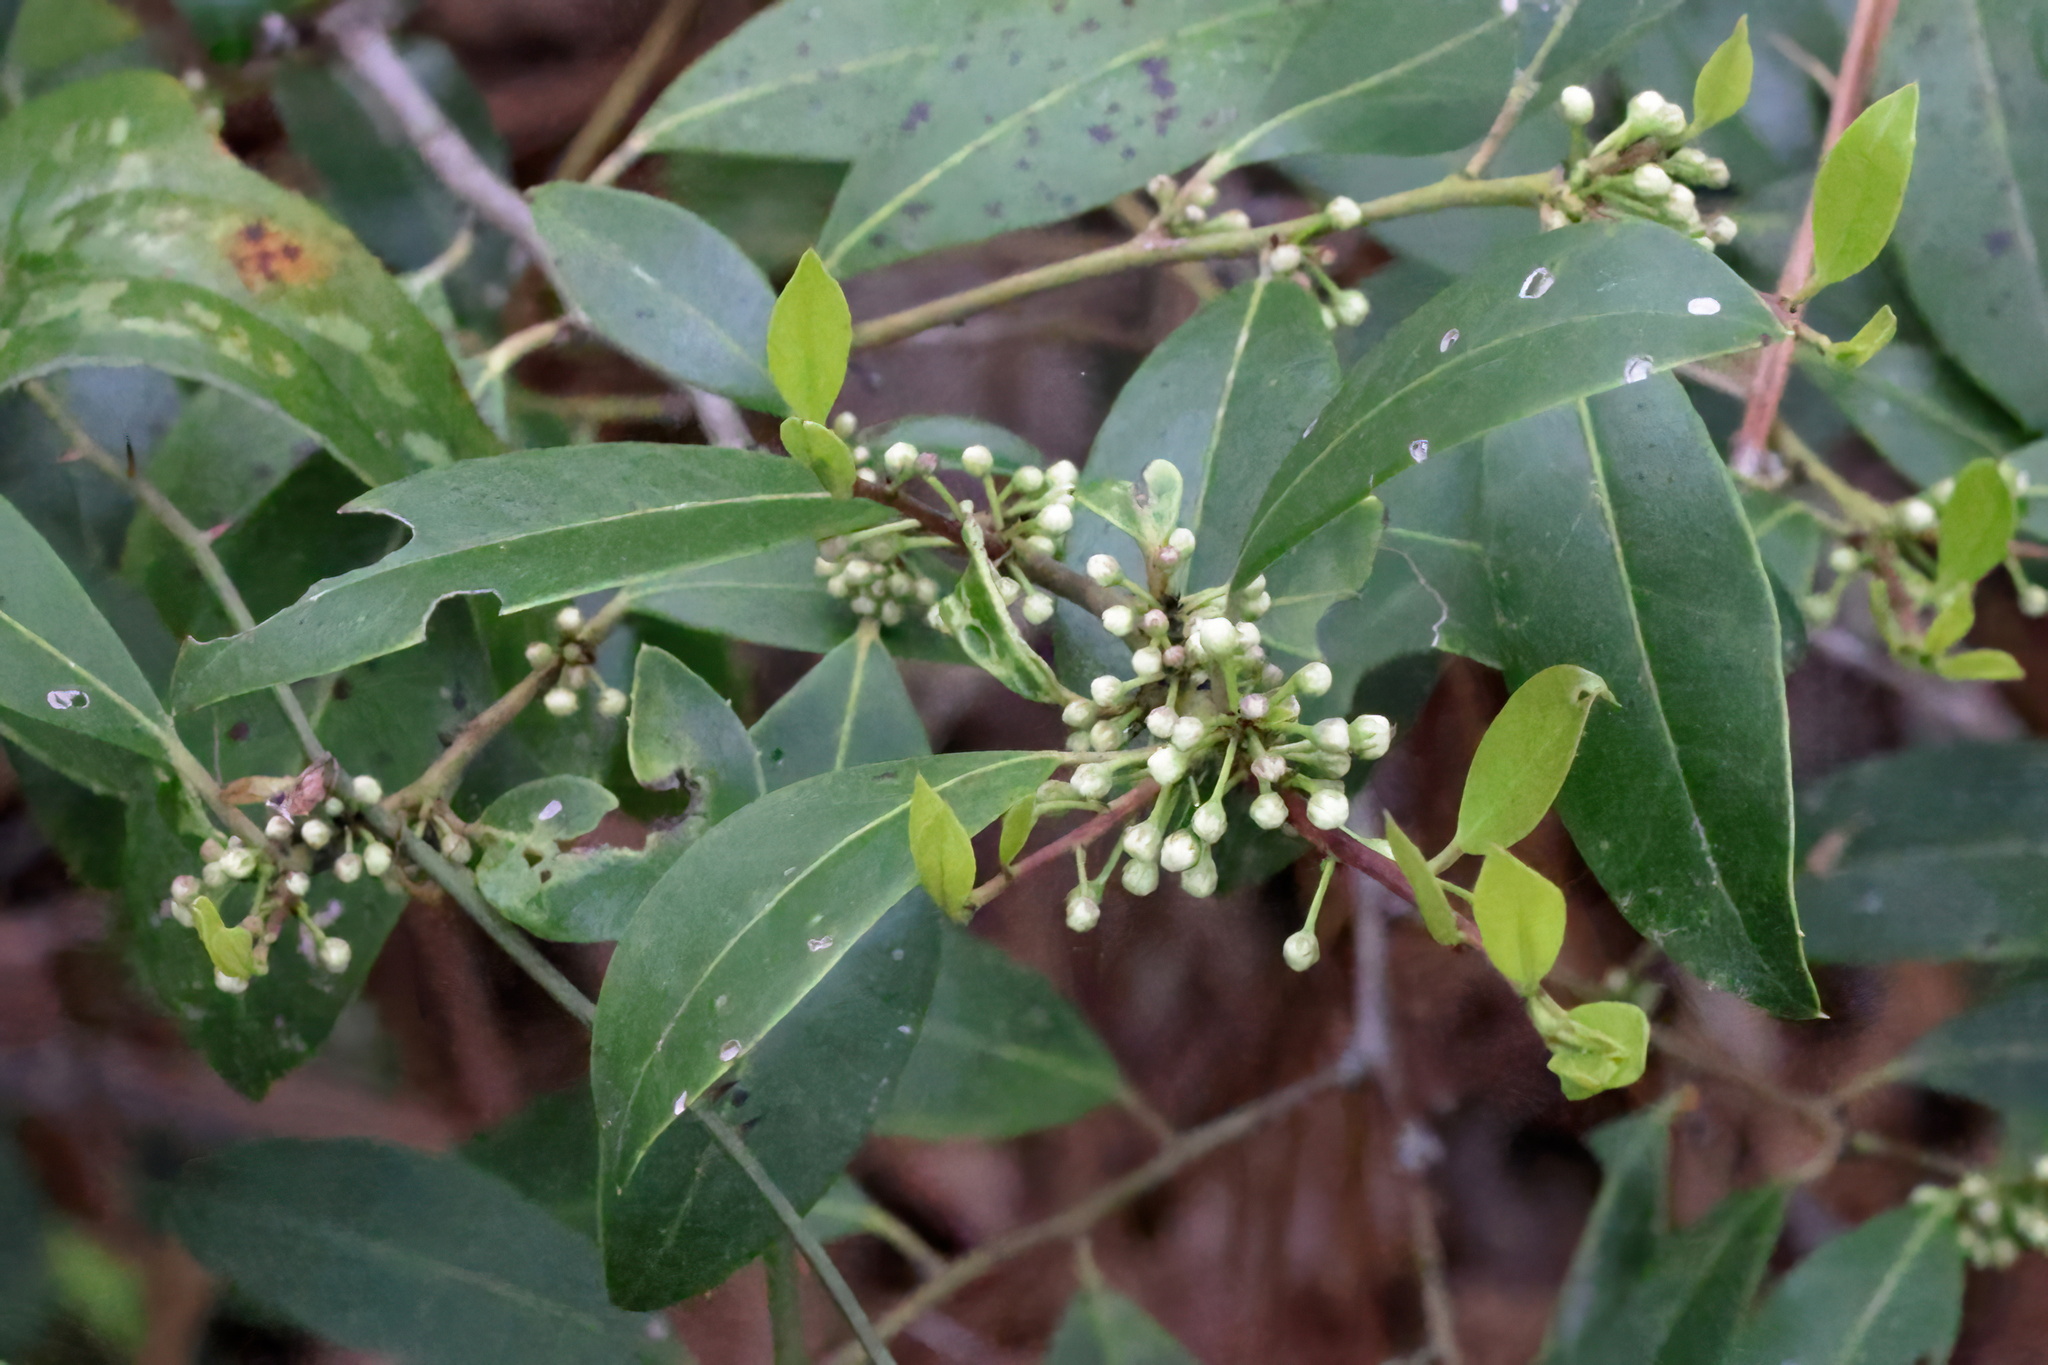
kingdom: Plantae
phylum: Tracheophyta
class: Magnoliopsida
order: Aquifoliales
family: Aquifoliaceae
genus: Ilex
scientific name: Ilex coriacea
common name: Sweet gallberry
